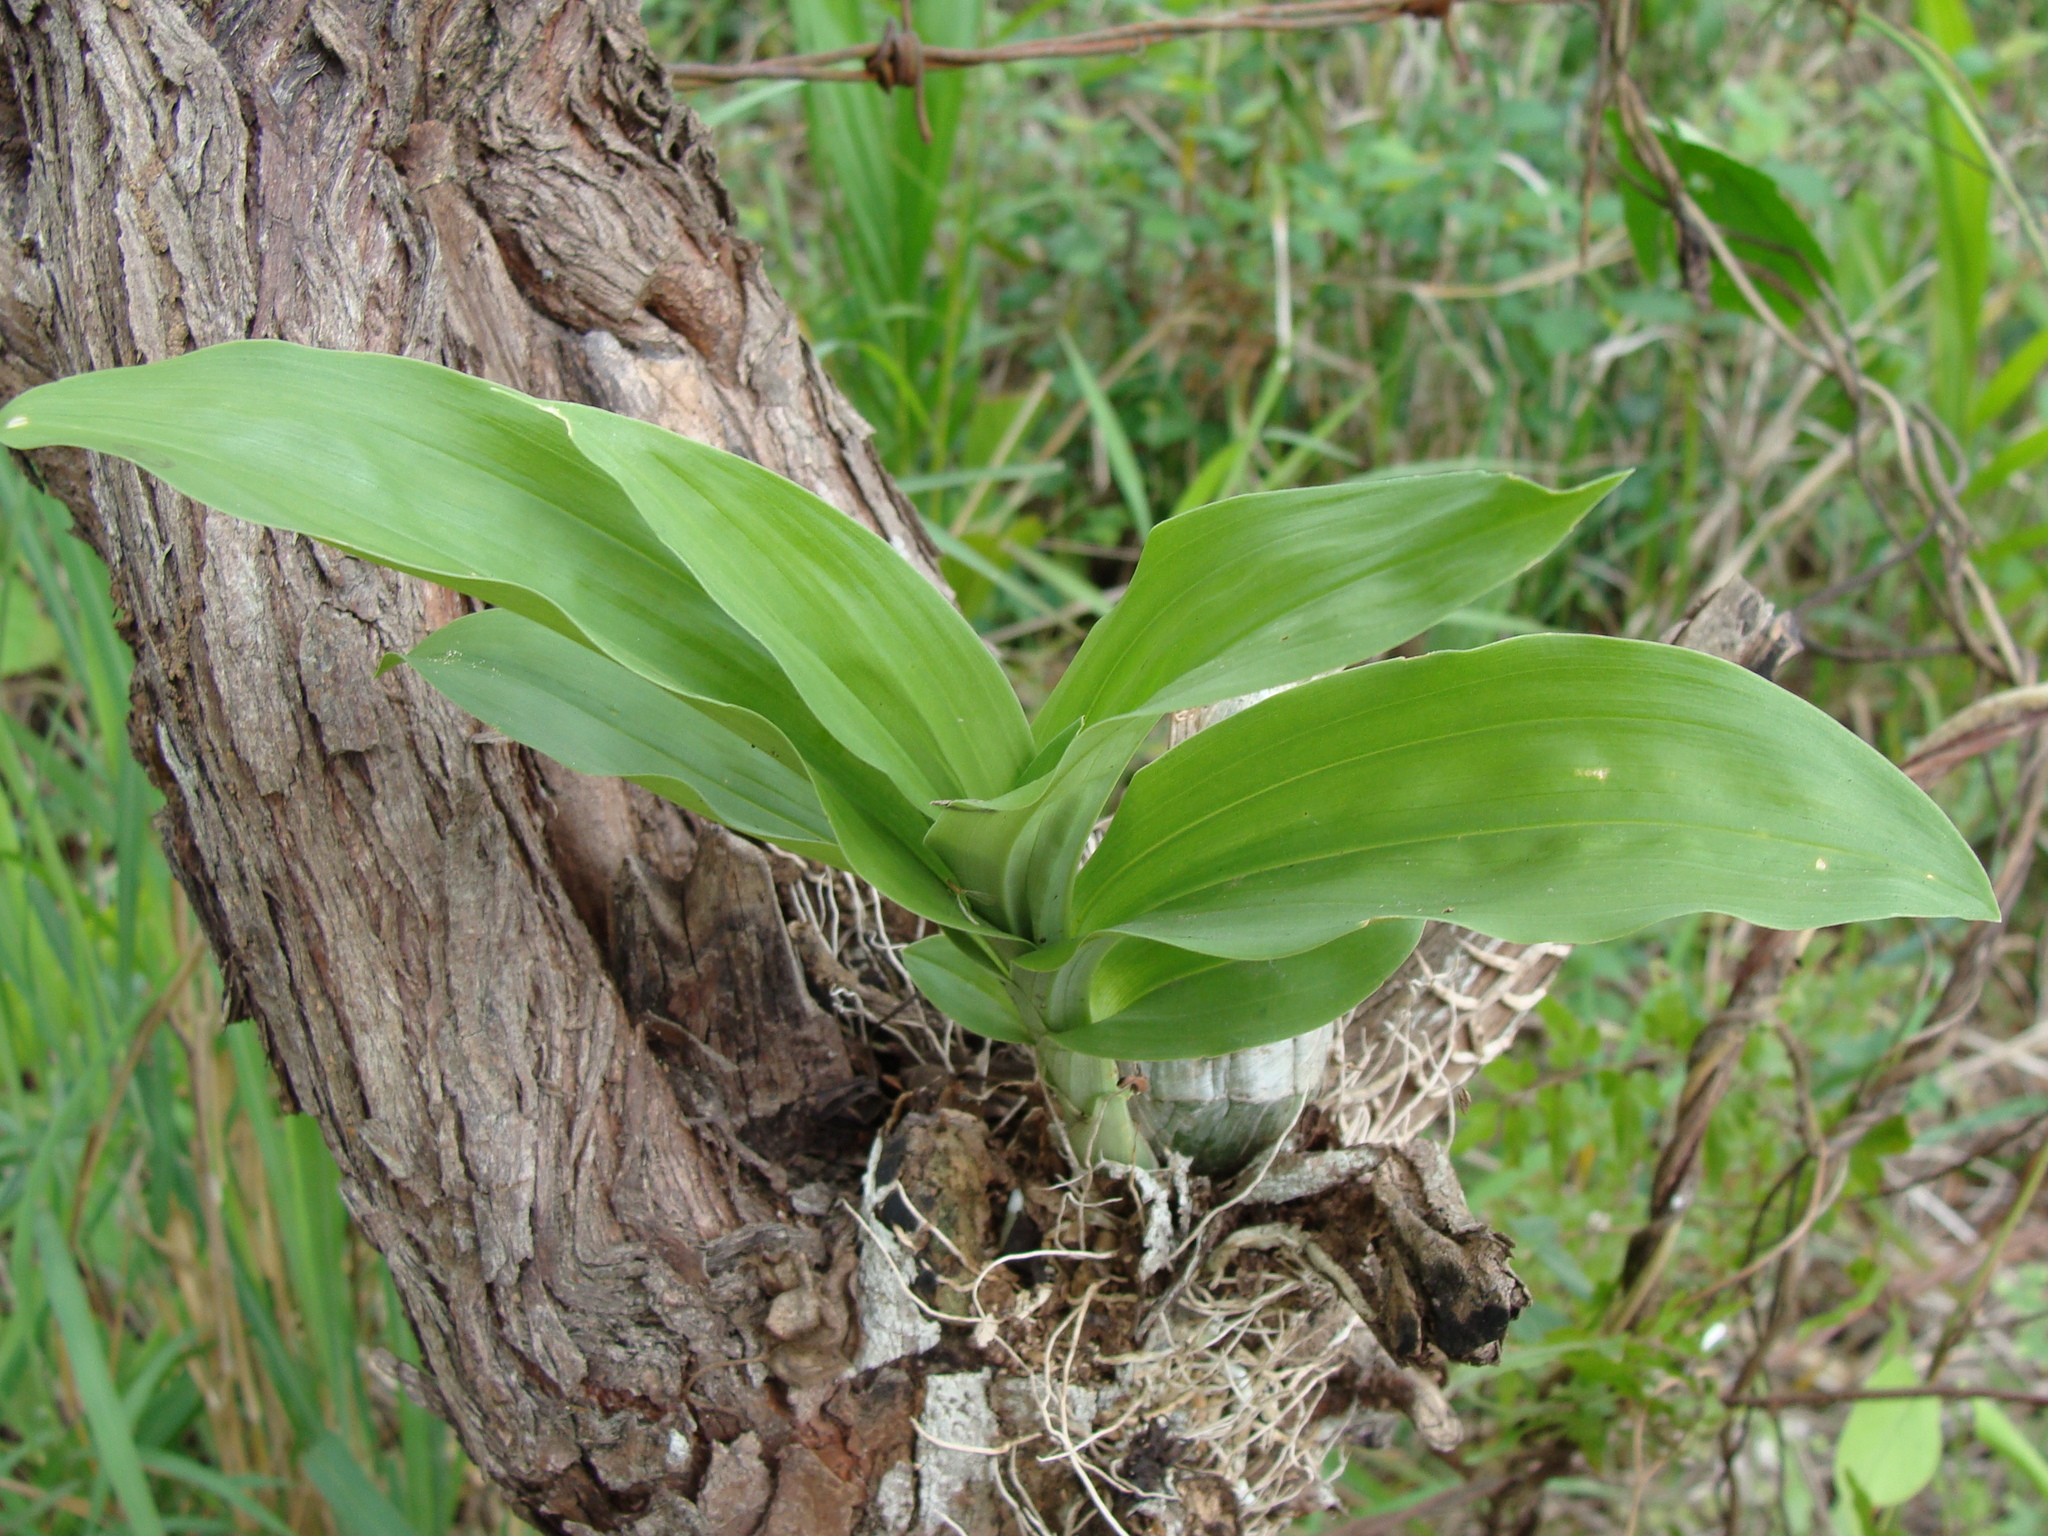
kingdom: Plantae
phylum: Tracheophyta
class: Liliopsida
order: Asparagales
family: Orchidaceae
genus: Catasetum
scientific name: Catasetum integerrimum
